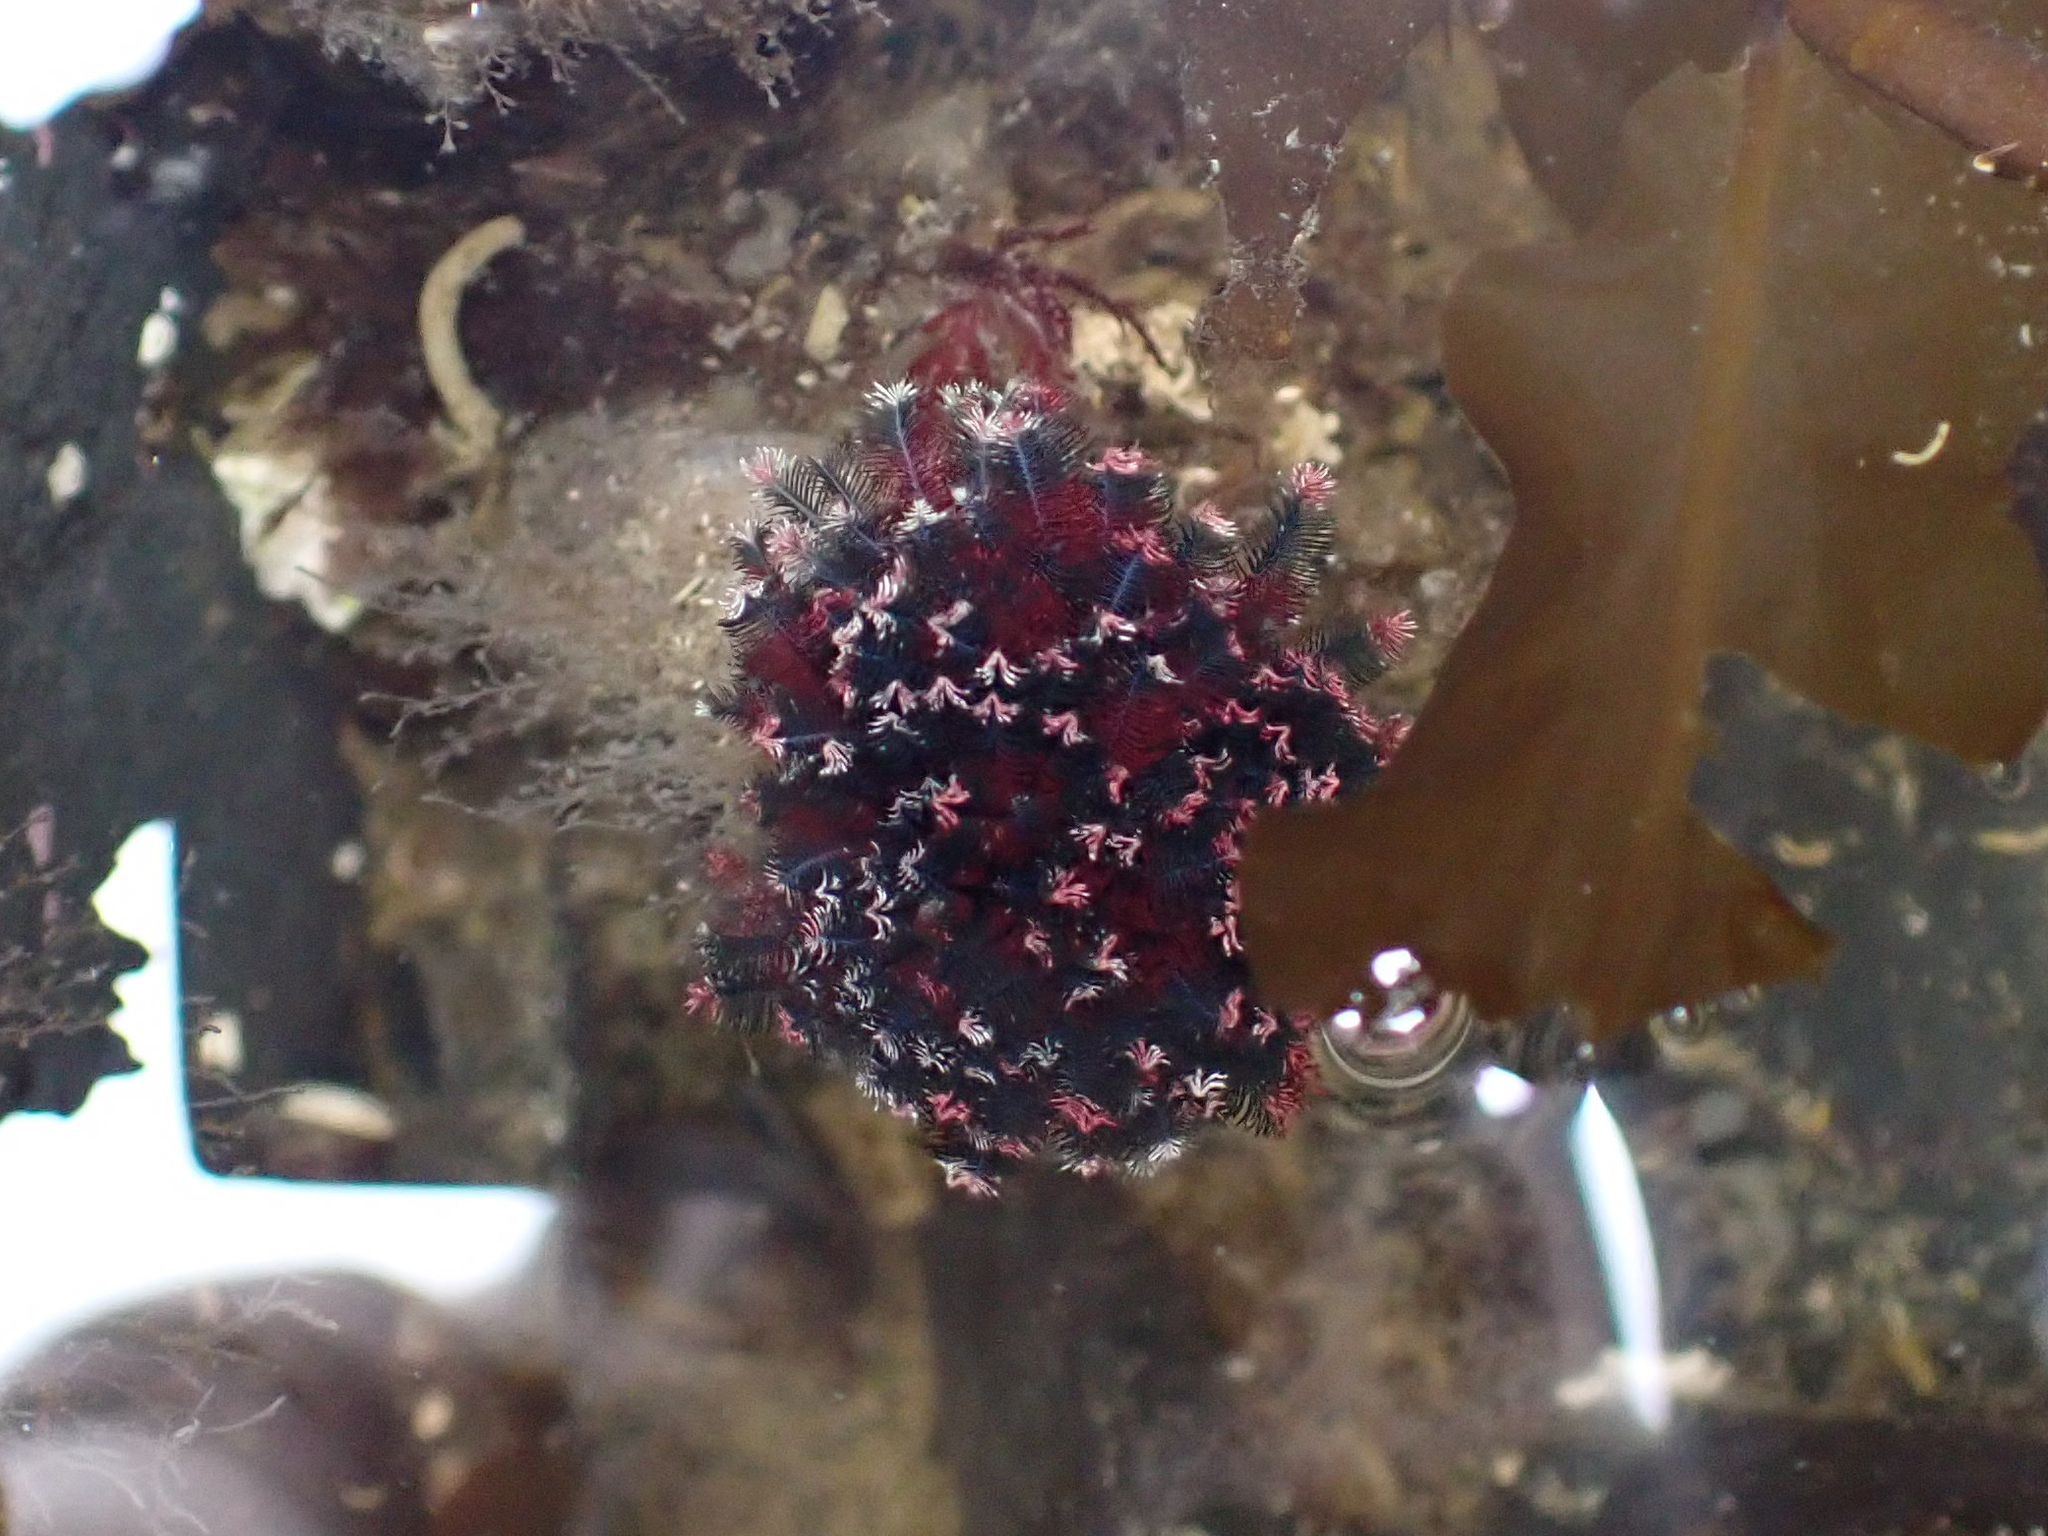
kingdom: Animalia
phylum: Annelida
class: Polychaeta
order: Sabellida
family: Sabellidae
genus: Eudistylia
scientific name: Eudistylia vancouveri
